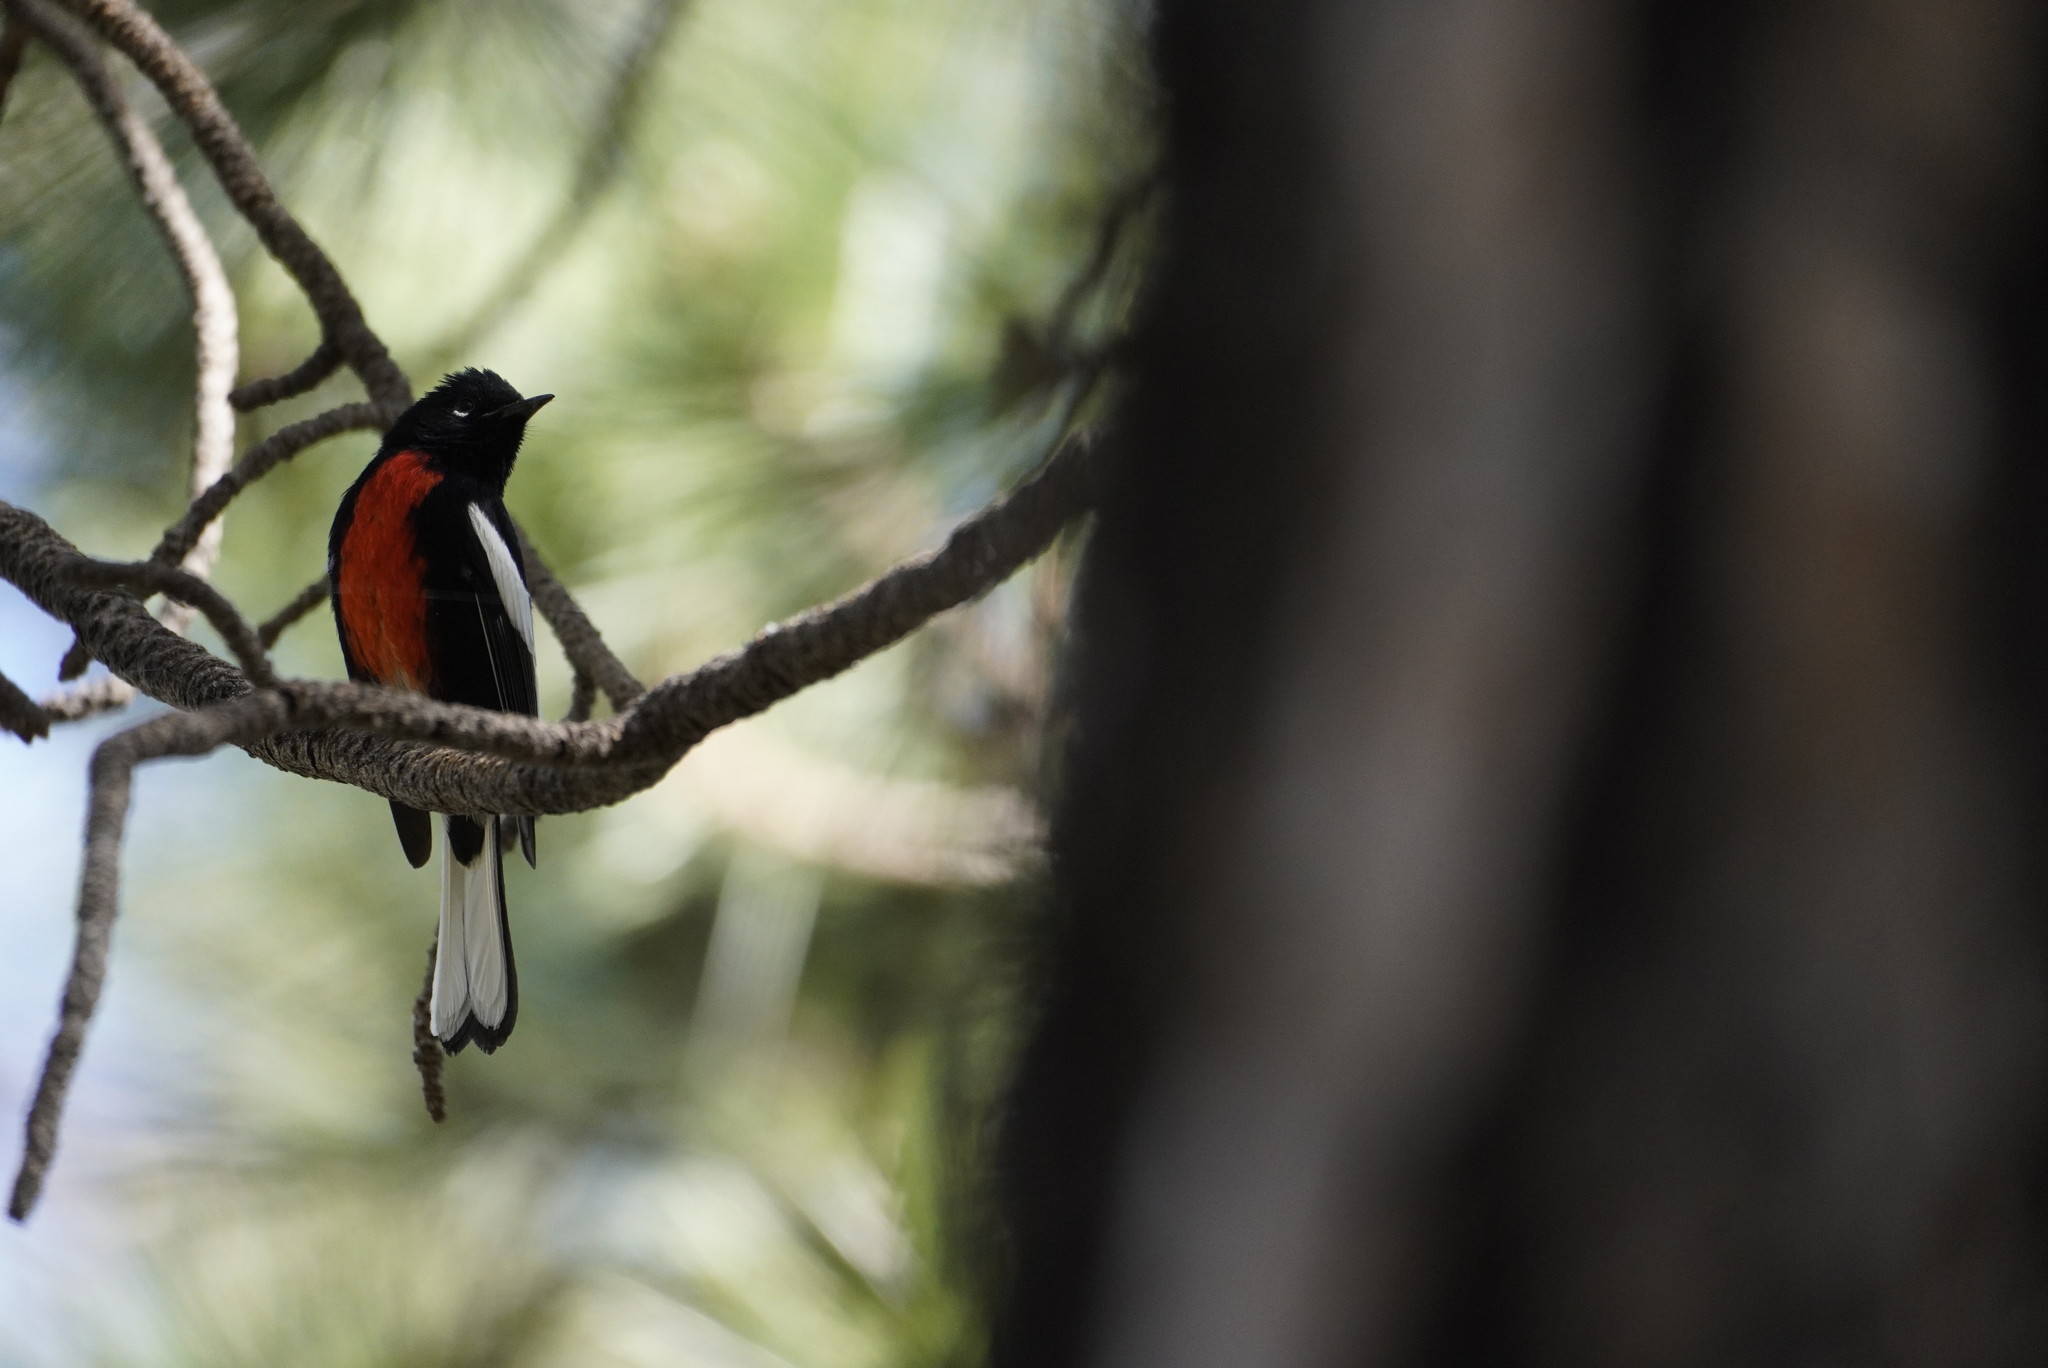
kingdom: Animalia
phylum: Chordata
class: Aves
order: Passeriformes
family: Parulidae
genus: Myioborus
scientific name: Myioborus pictus
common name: Painted whitestart
